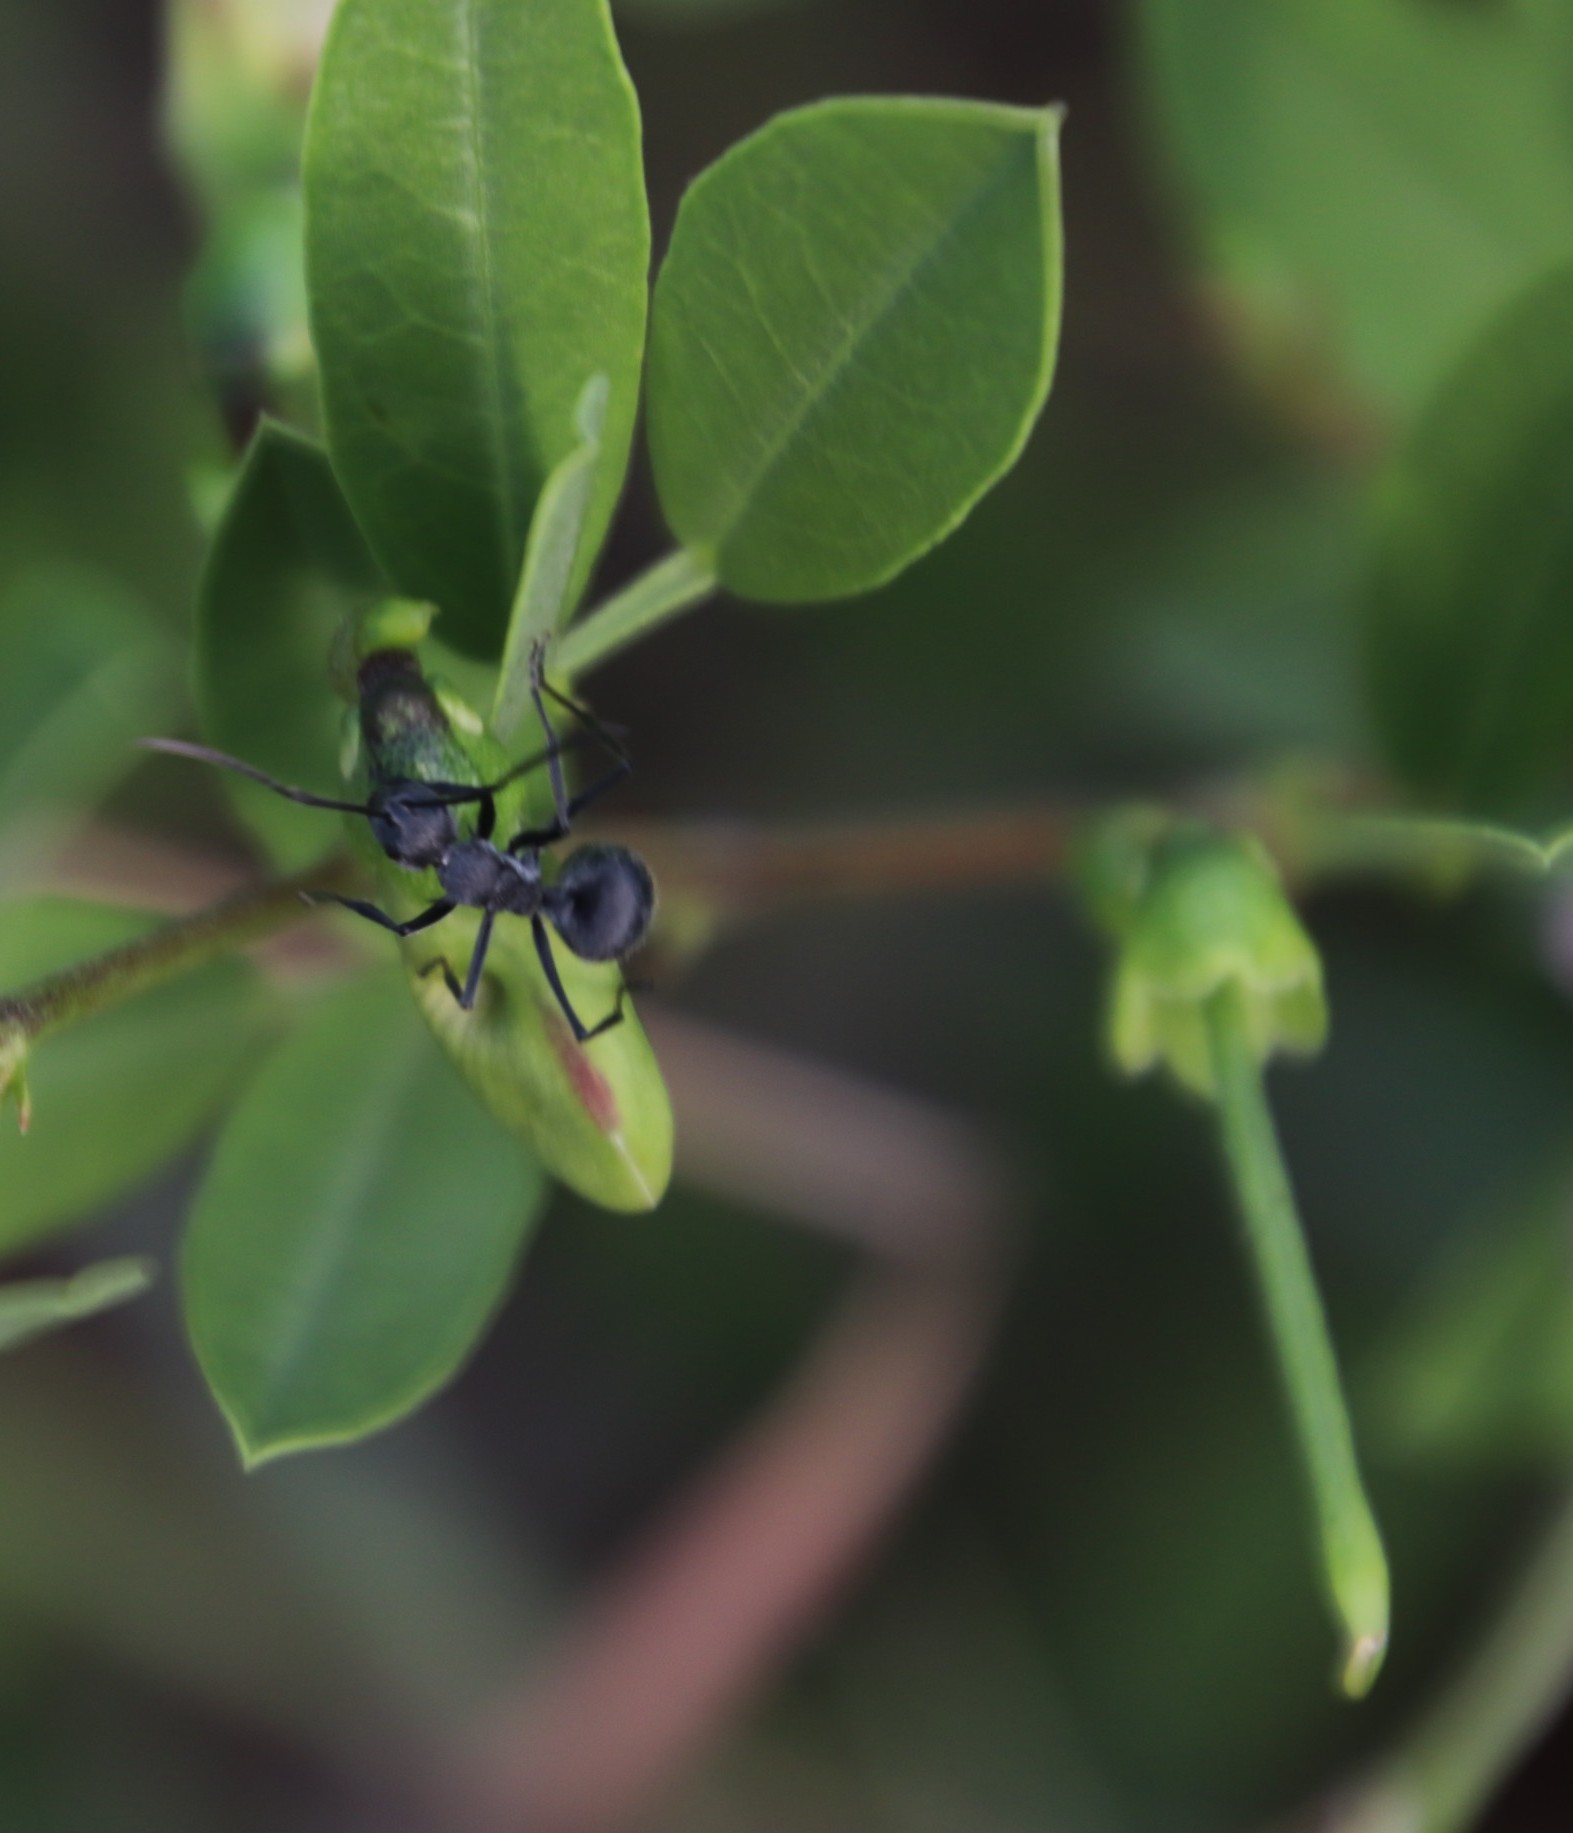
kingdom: Animalia
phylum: Arthropoda
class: Insecta
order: Hymenoptera
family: Formicidae
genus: Polyrhachis
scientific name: Polyrhachis schistacea
